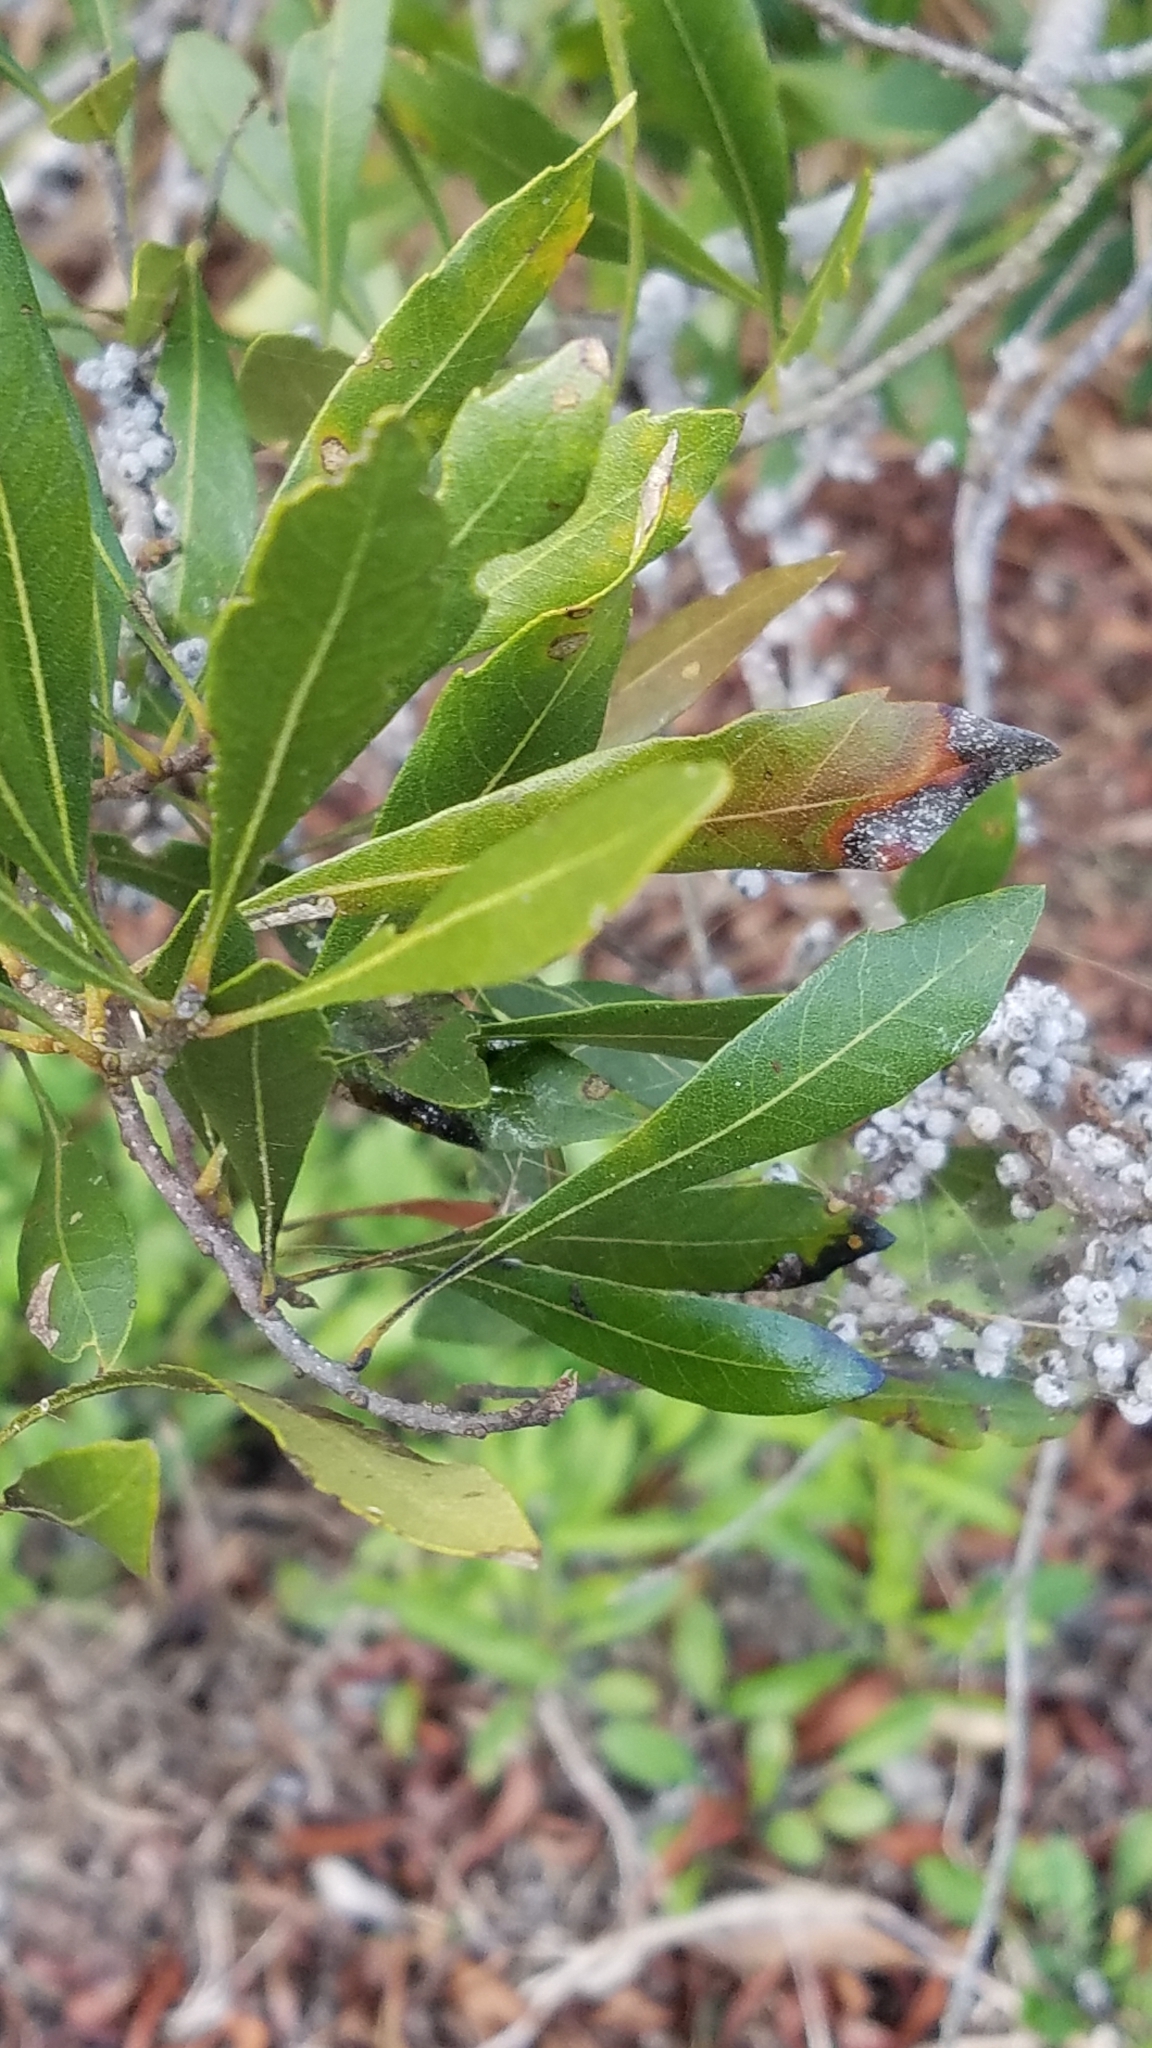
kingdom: Plantae
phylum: Tracheophyta
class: Magnoliopsida
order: Fagales
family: Myricaceae
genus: Morella
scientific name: Morella cerifera
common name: Wax myrtle
